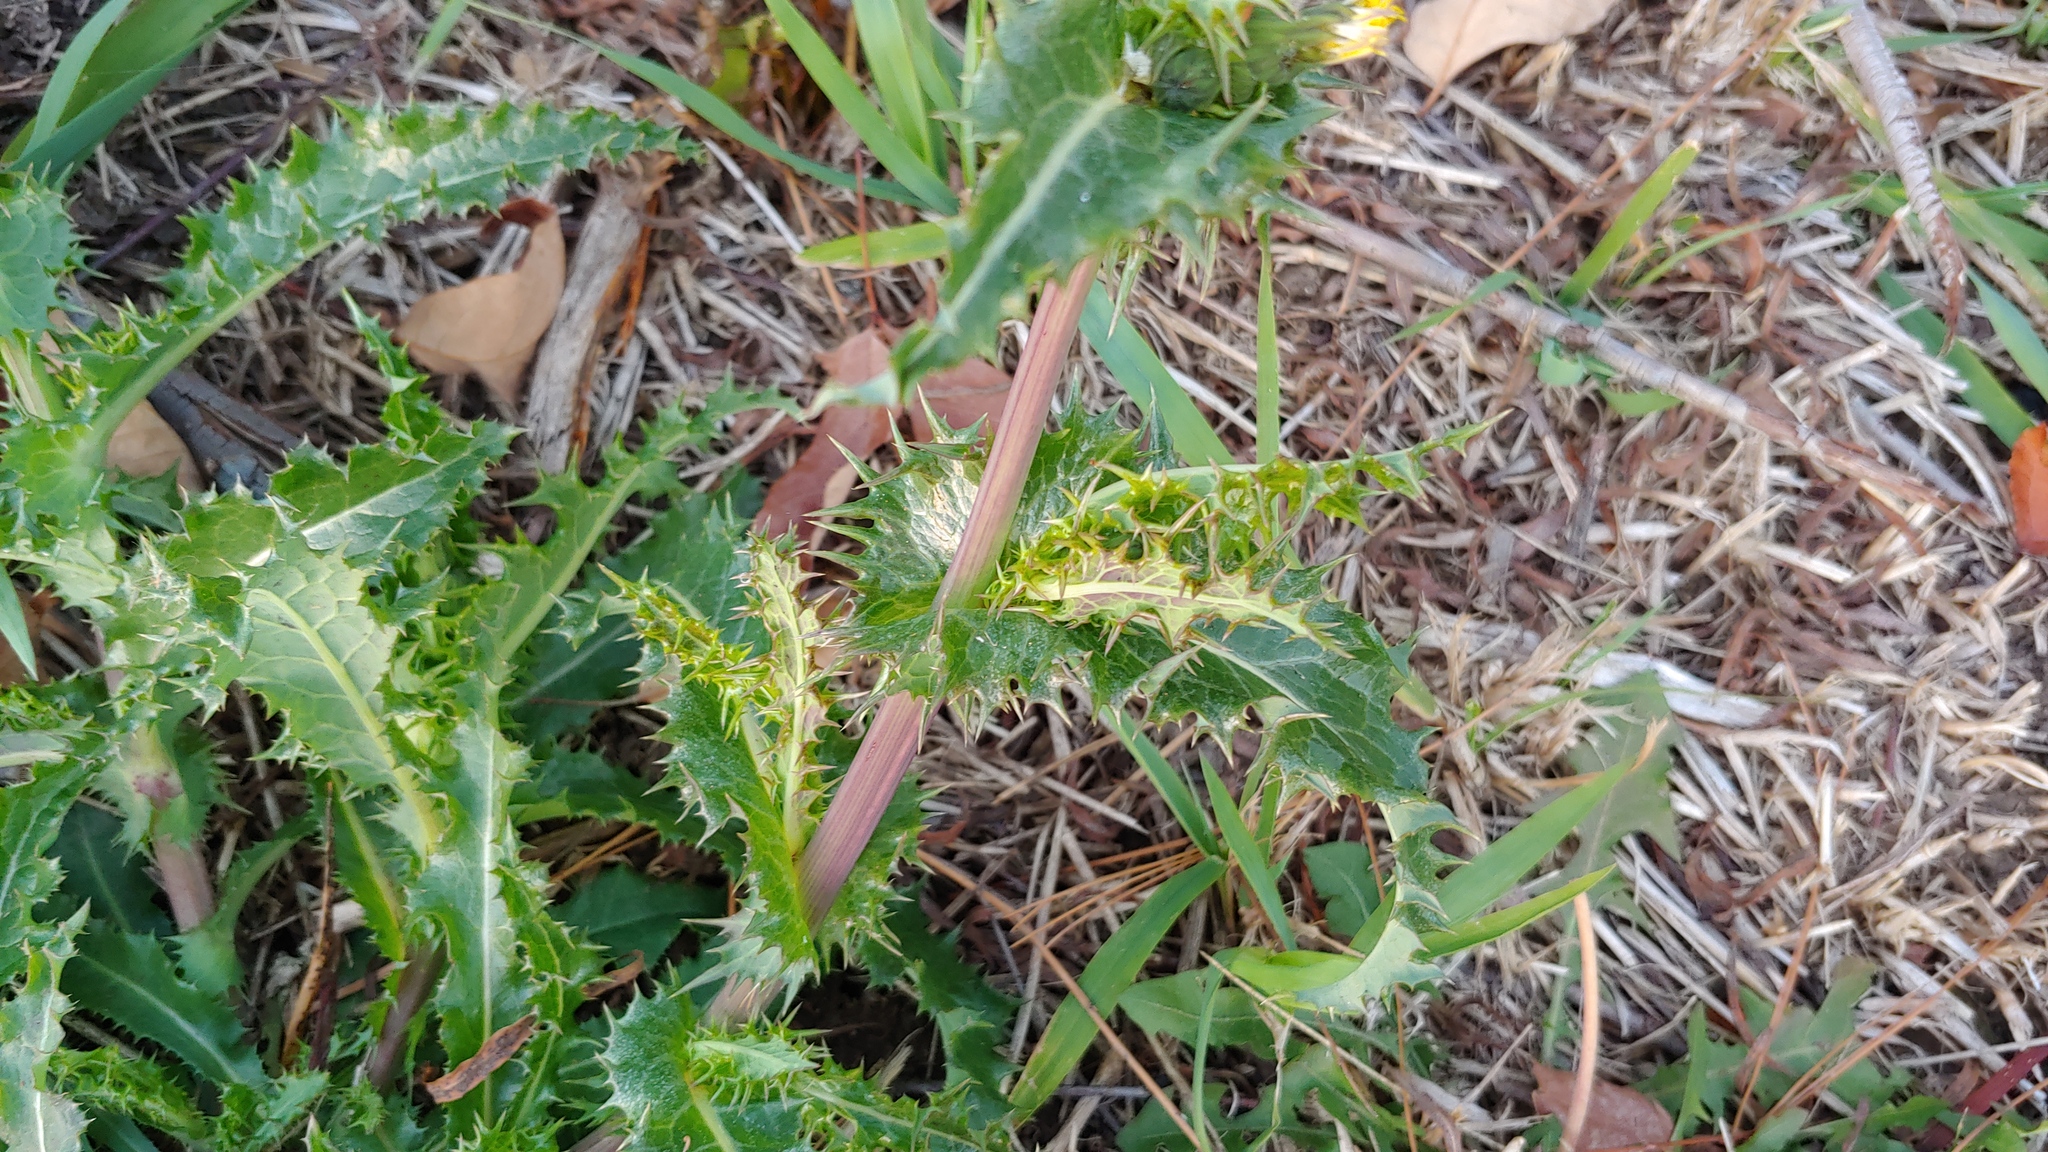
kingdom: Plantae
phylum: Tracheophyta
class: Magnoliopsida
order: Asterales
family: Asteraceae
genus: Sonchus
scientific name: Sonchus asper
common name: Prickly sow-thistle
